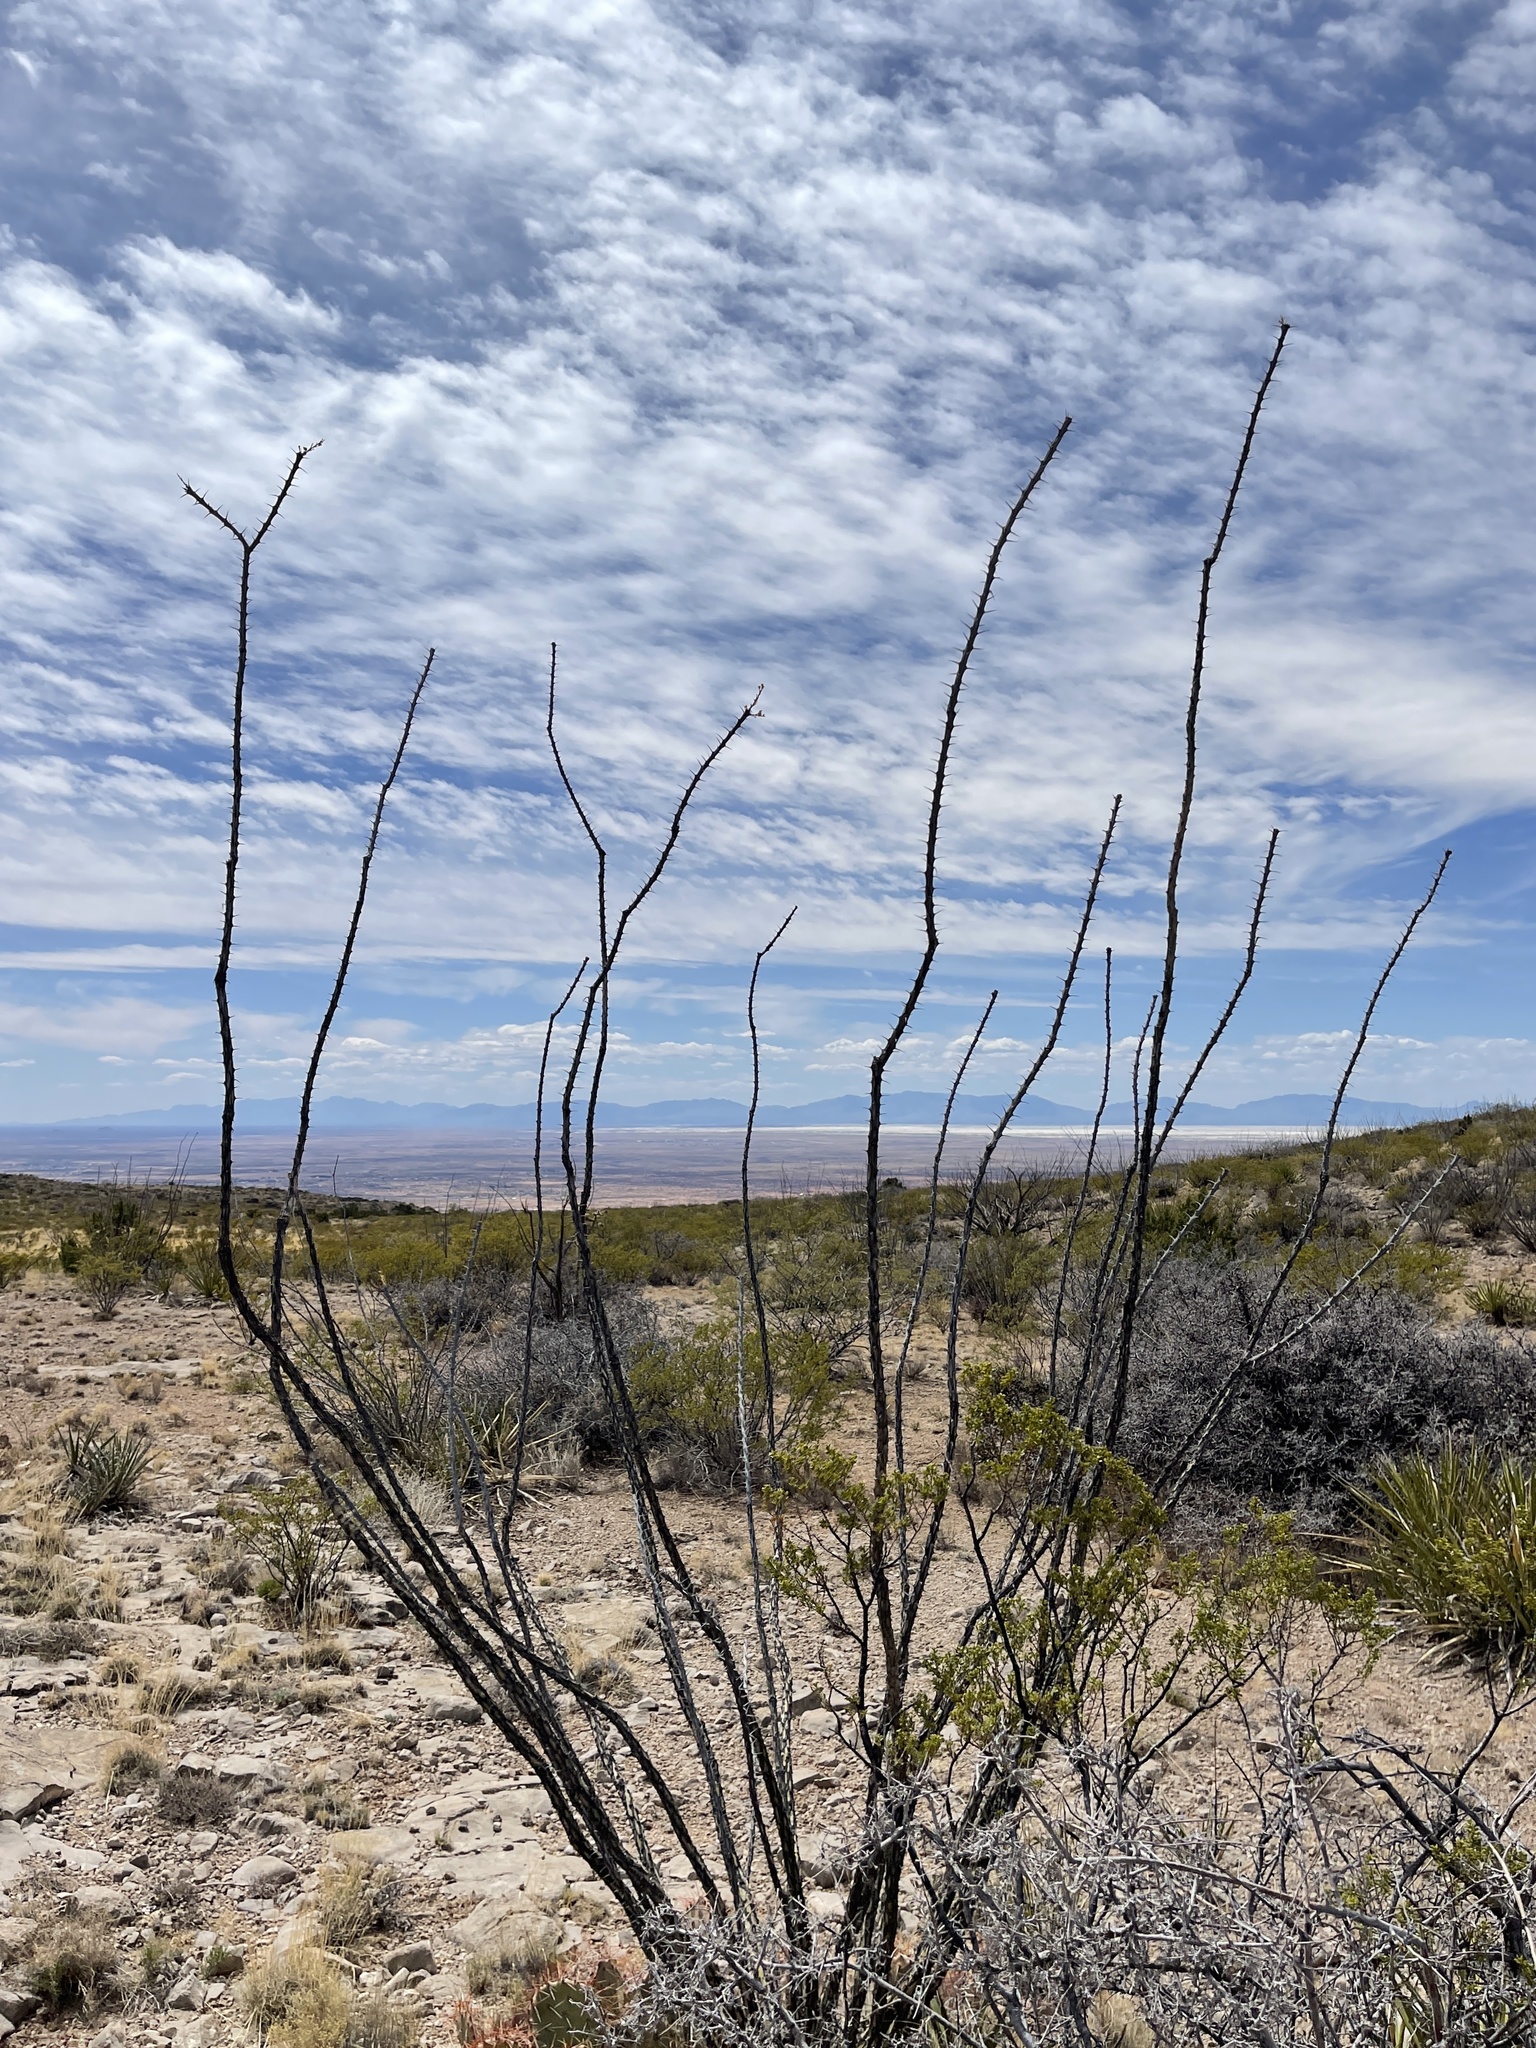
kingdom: Plantae
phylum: Tracheophyta
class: Magnoliopsida
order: Ericales
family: Fouquieriaceae
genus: Fouquieria
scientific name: Fouquieria splendens
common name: Vine-cactus
